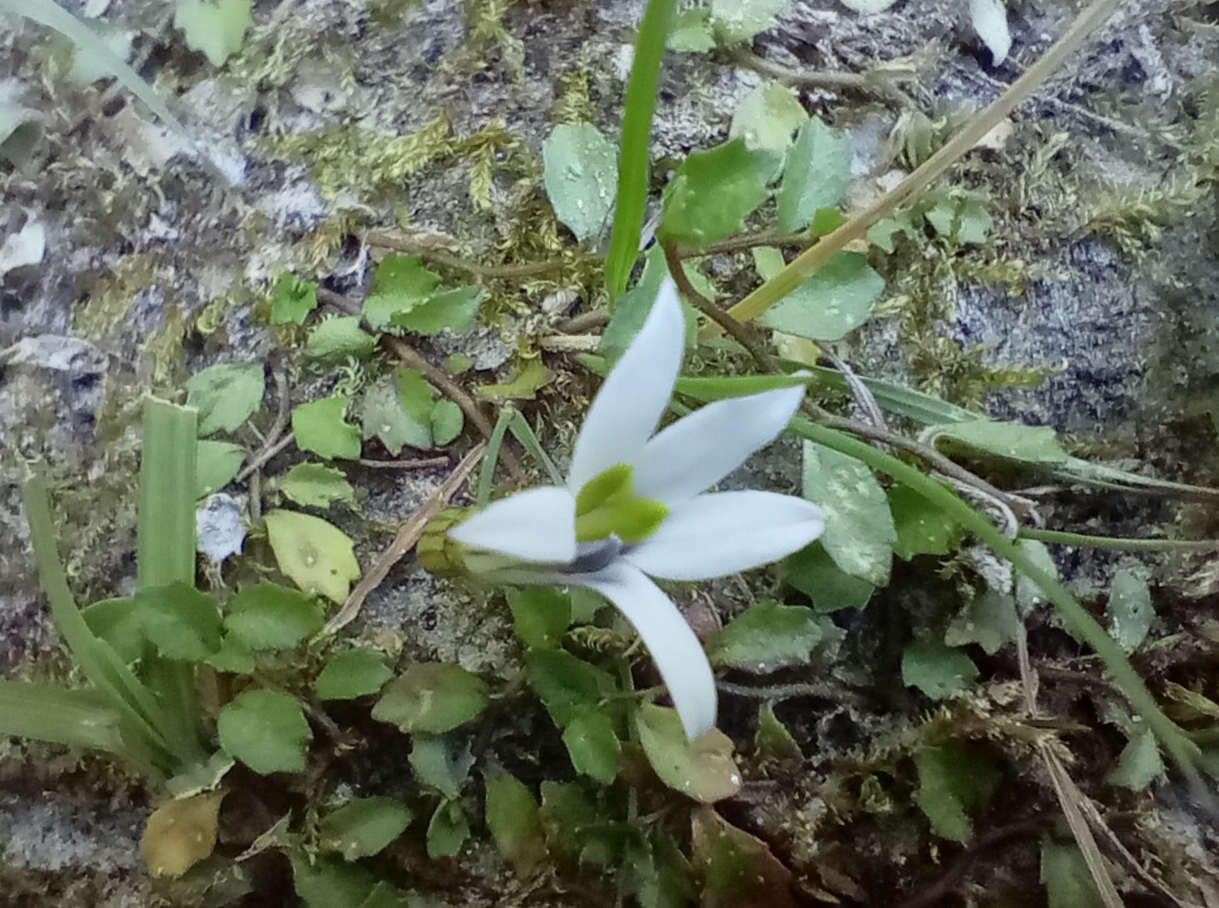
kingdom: Plantae
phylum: Tracheophyta
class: Magnoliopsida
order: Asterales
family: Campanulaceae
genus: Lobelia
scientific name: Lobelia angulata
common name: Lawn lobelia
